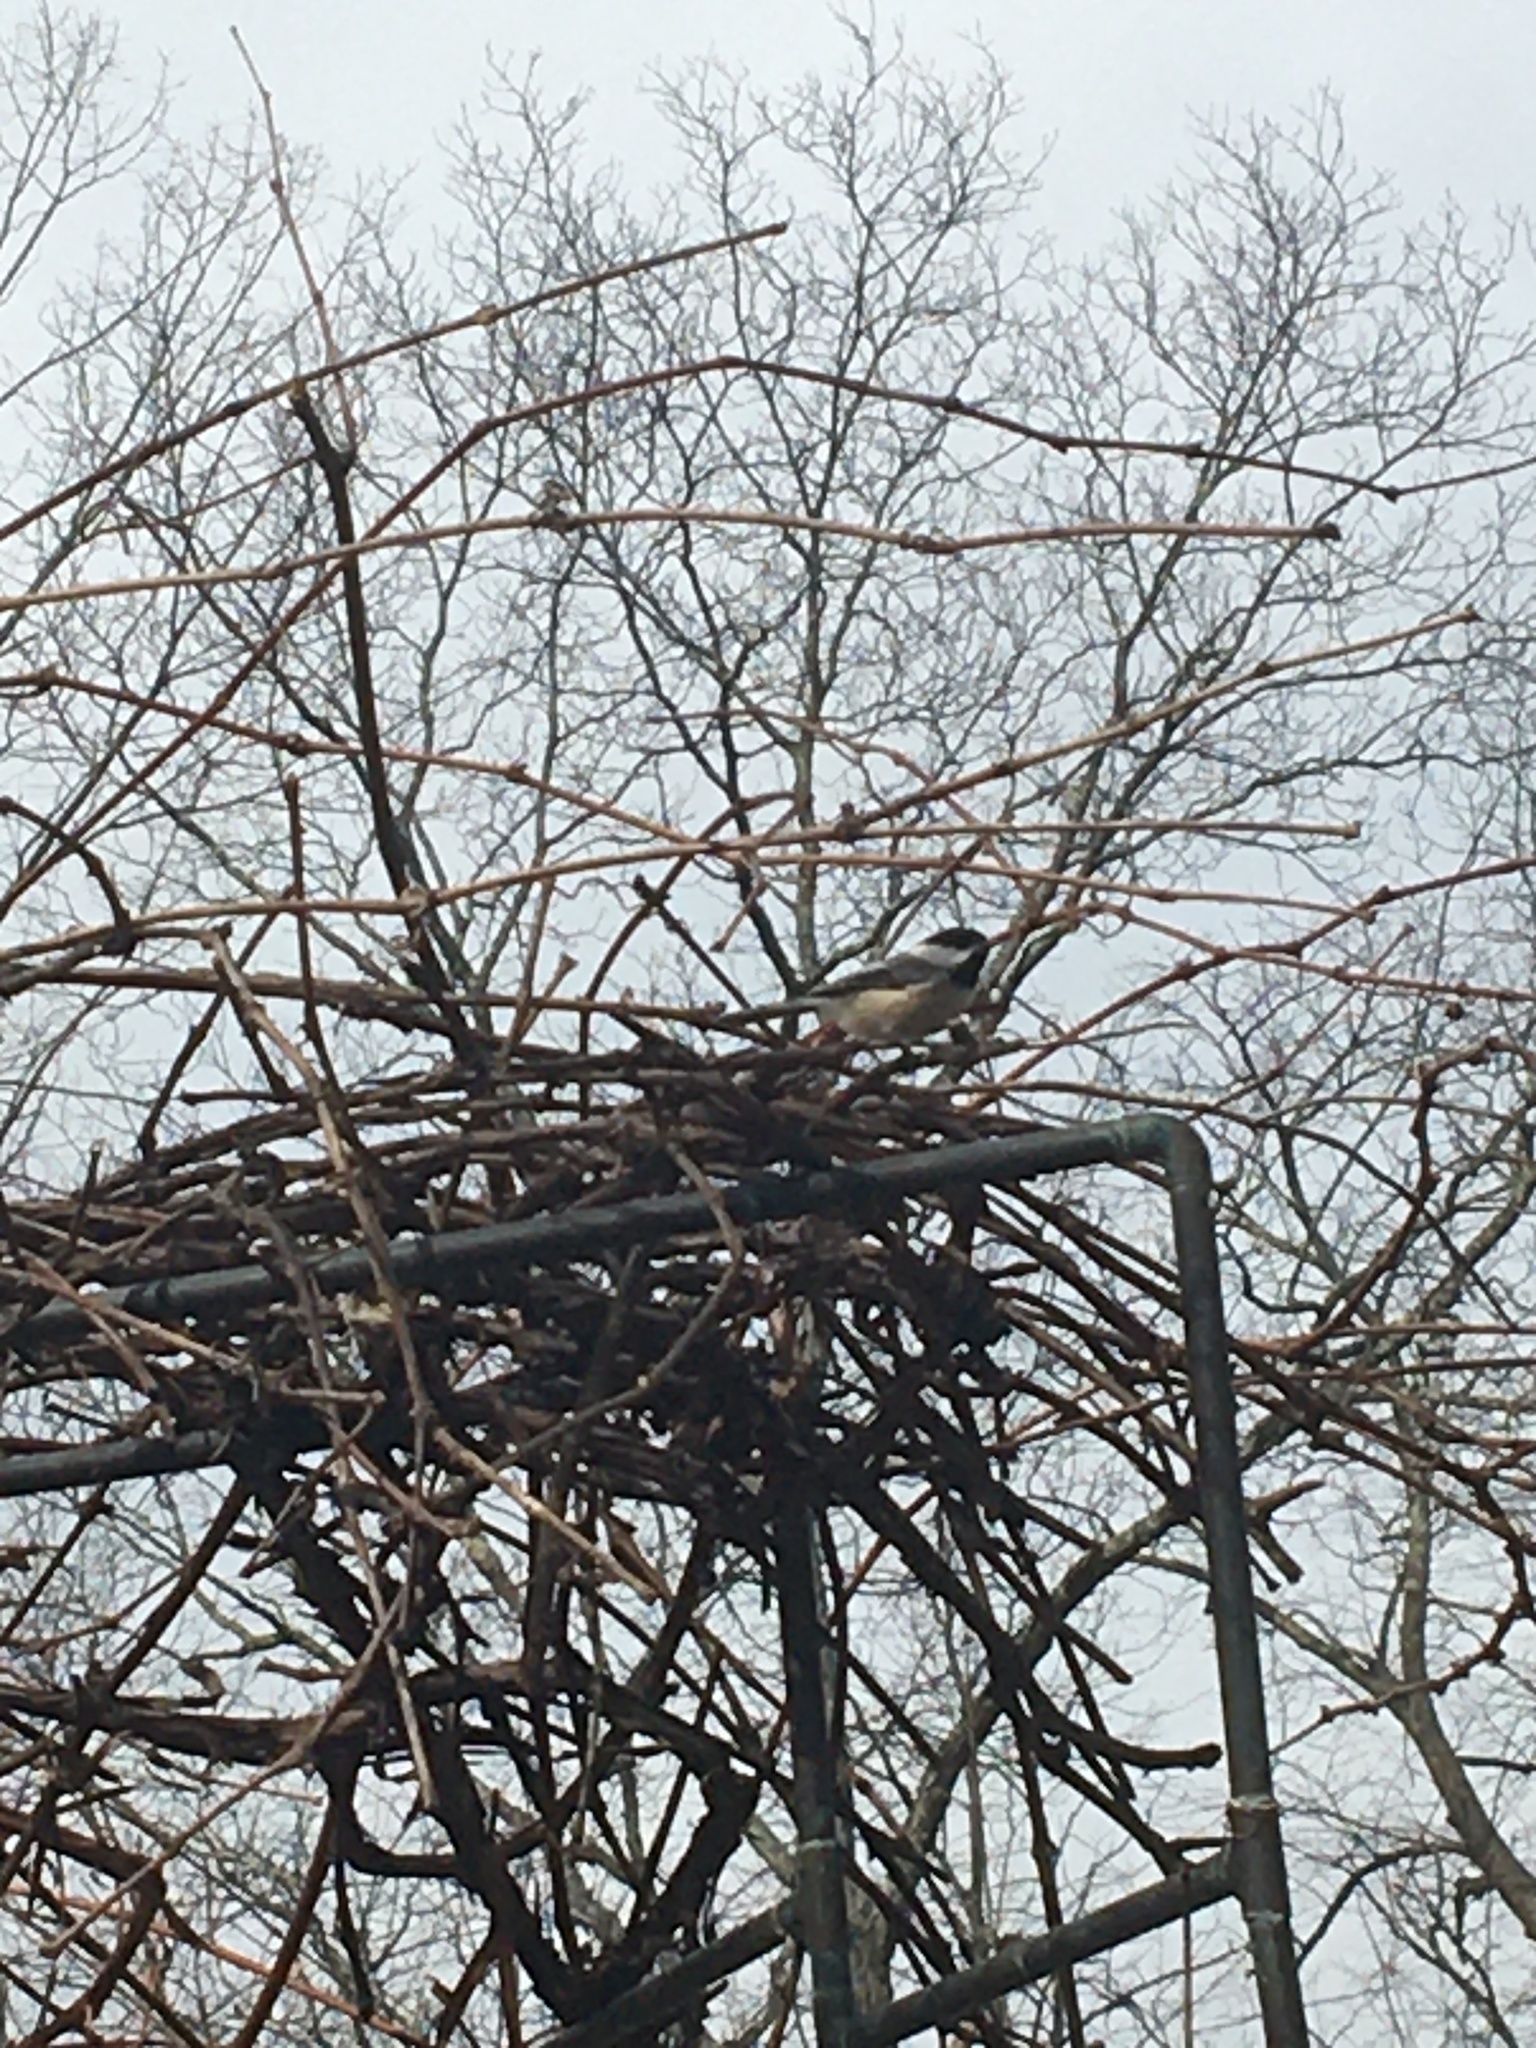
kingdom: Animalia
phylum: Chordata
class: Aves
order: Passeriformes
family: Paridae
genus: Poecile
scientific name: Poecile atricapillus
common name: Black-capped chickadee
